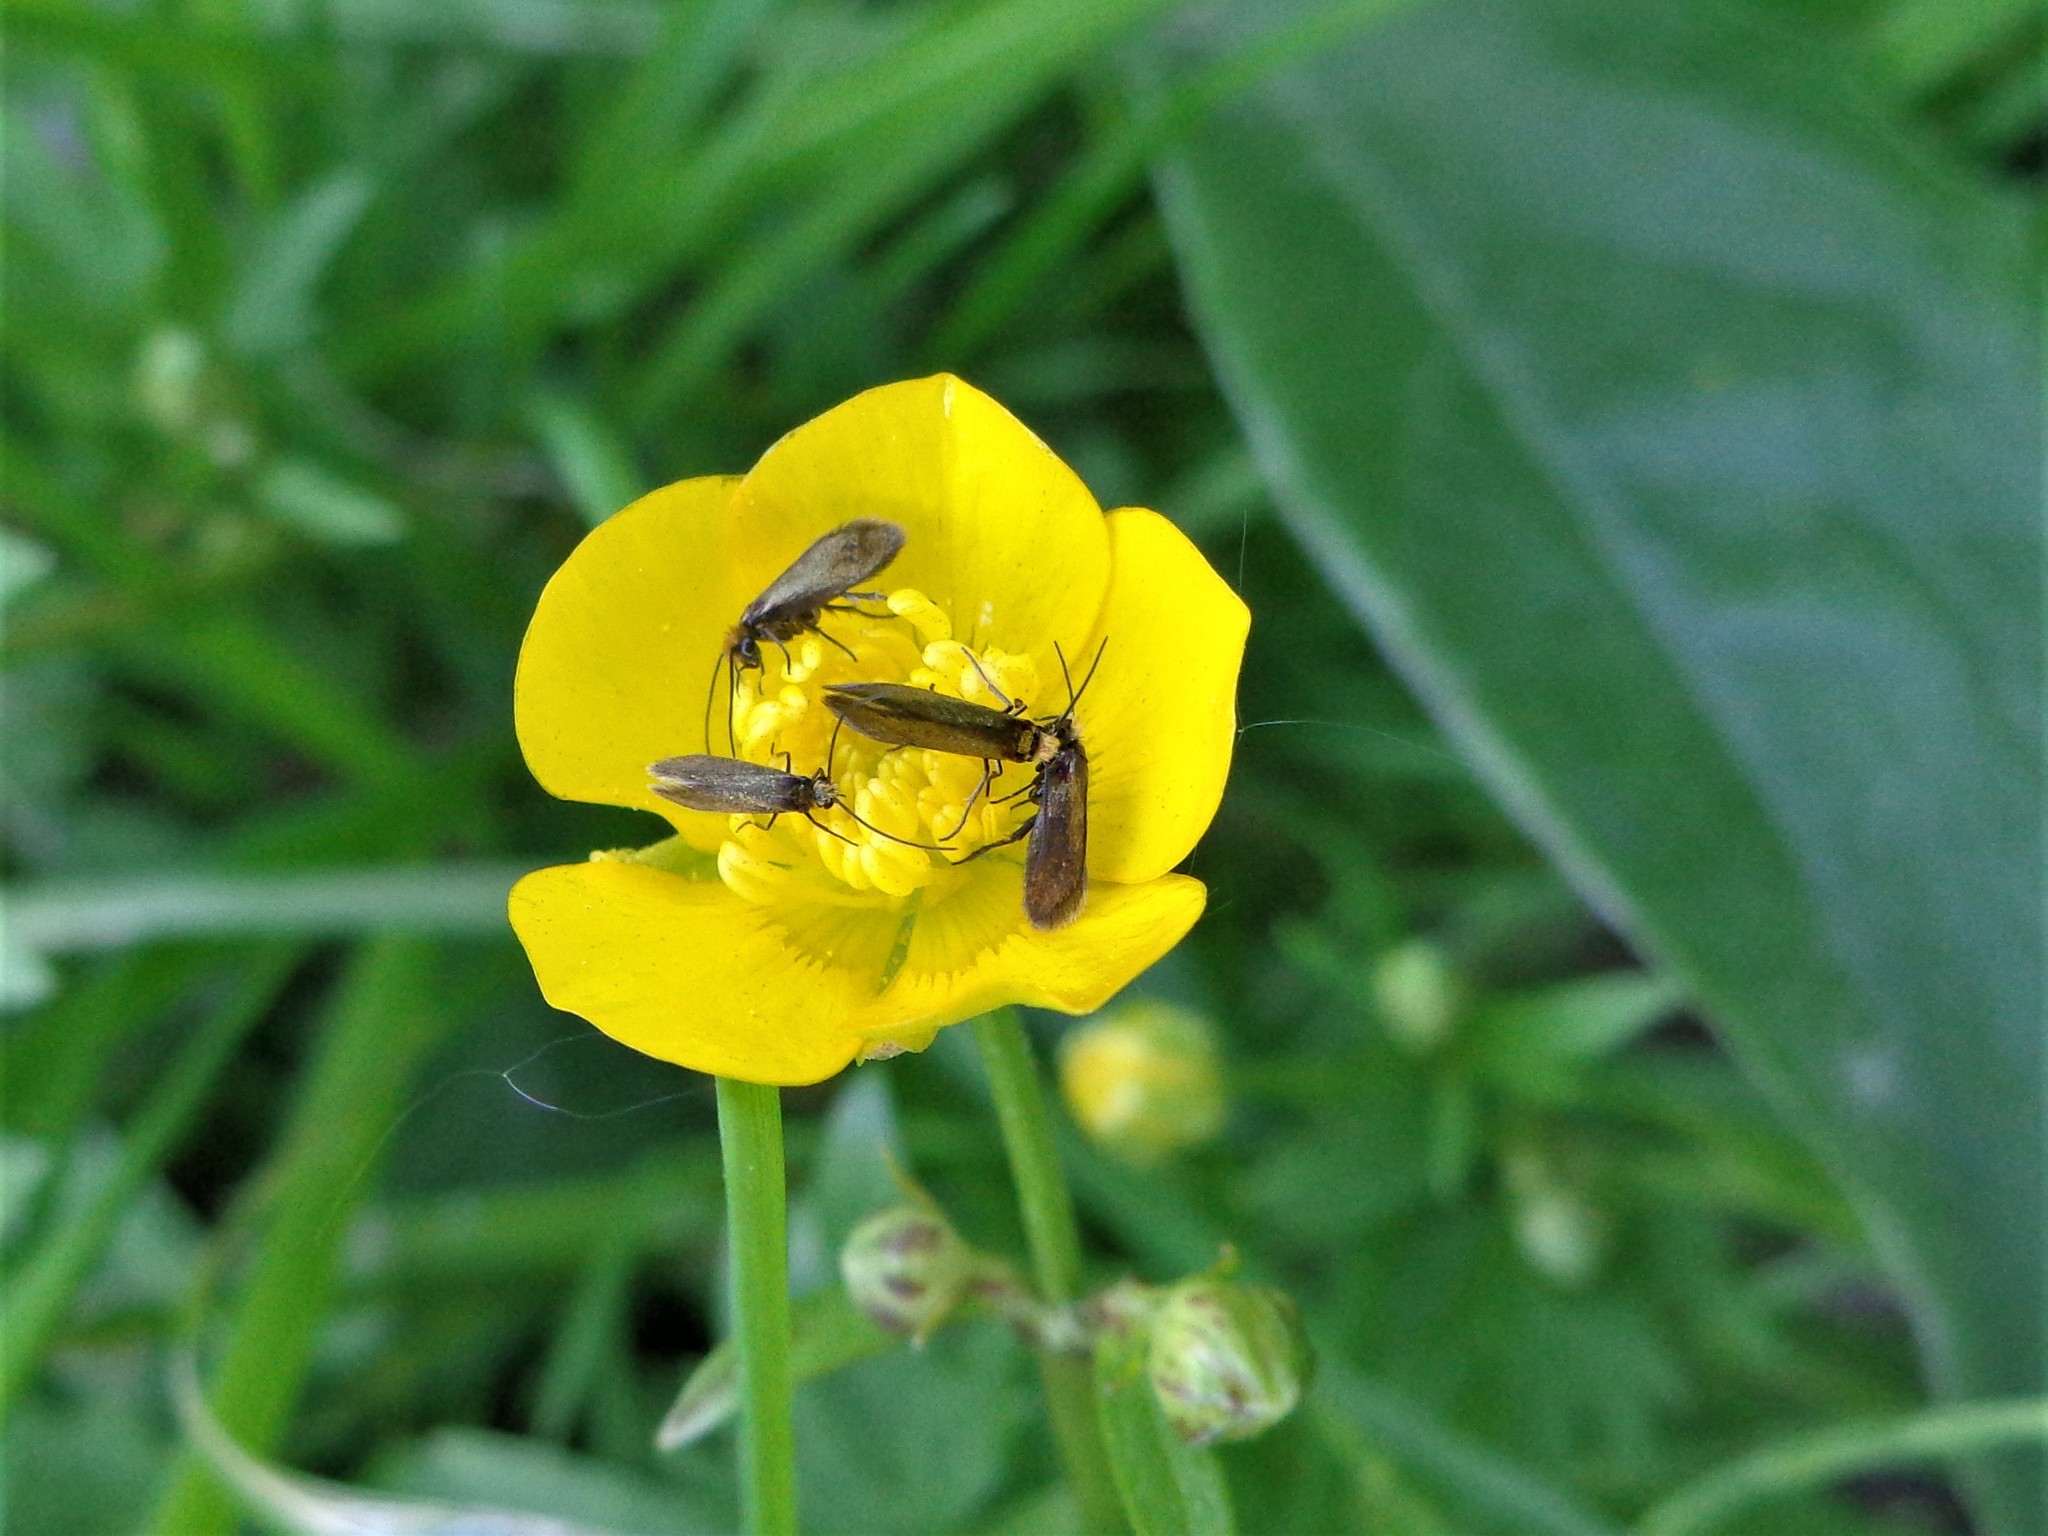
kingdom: Animalia
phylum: Arthropoda
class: Insecta
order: Lepidoptera
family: Micropterigidae
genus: Micropterix
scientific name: Micropterix calthella
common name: Plain gold
